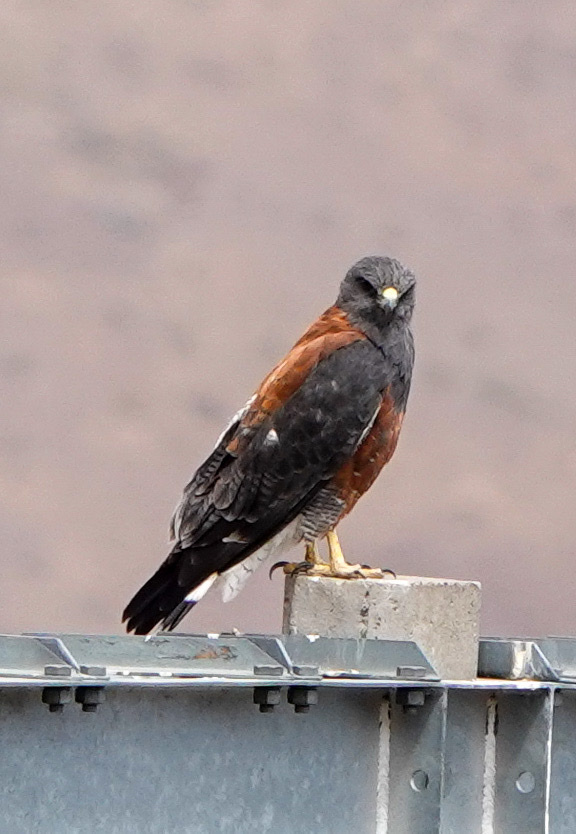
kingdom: Animalia
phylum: Chordata
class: Aves
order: Accipitriformes
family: Accipitridae
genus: Buteo
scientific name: Buteo polyosoma
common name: Variable hawk
